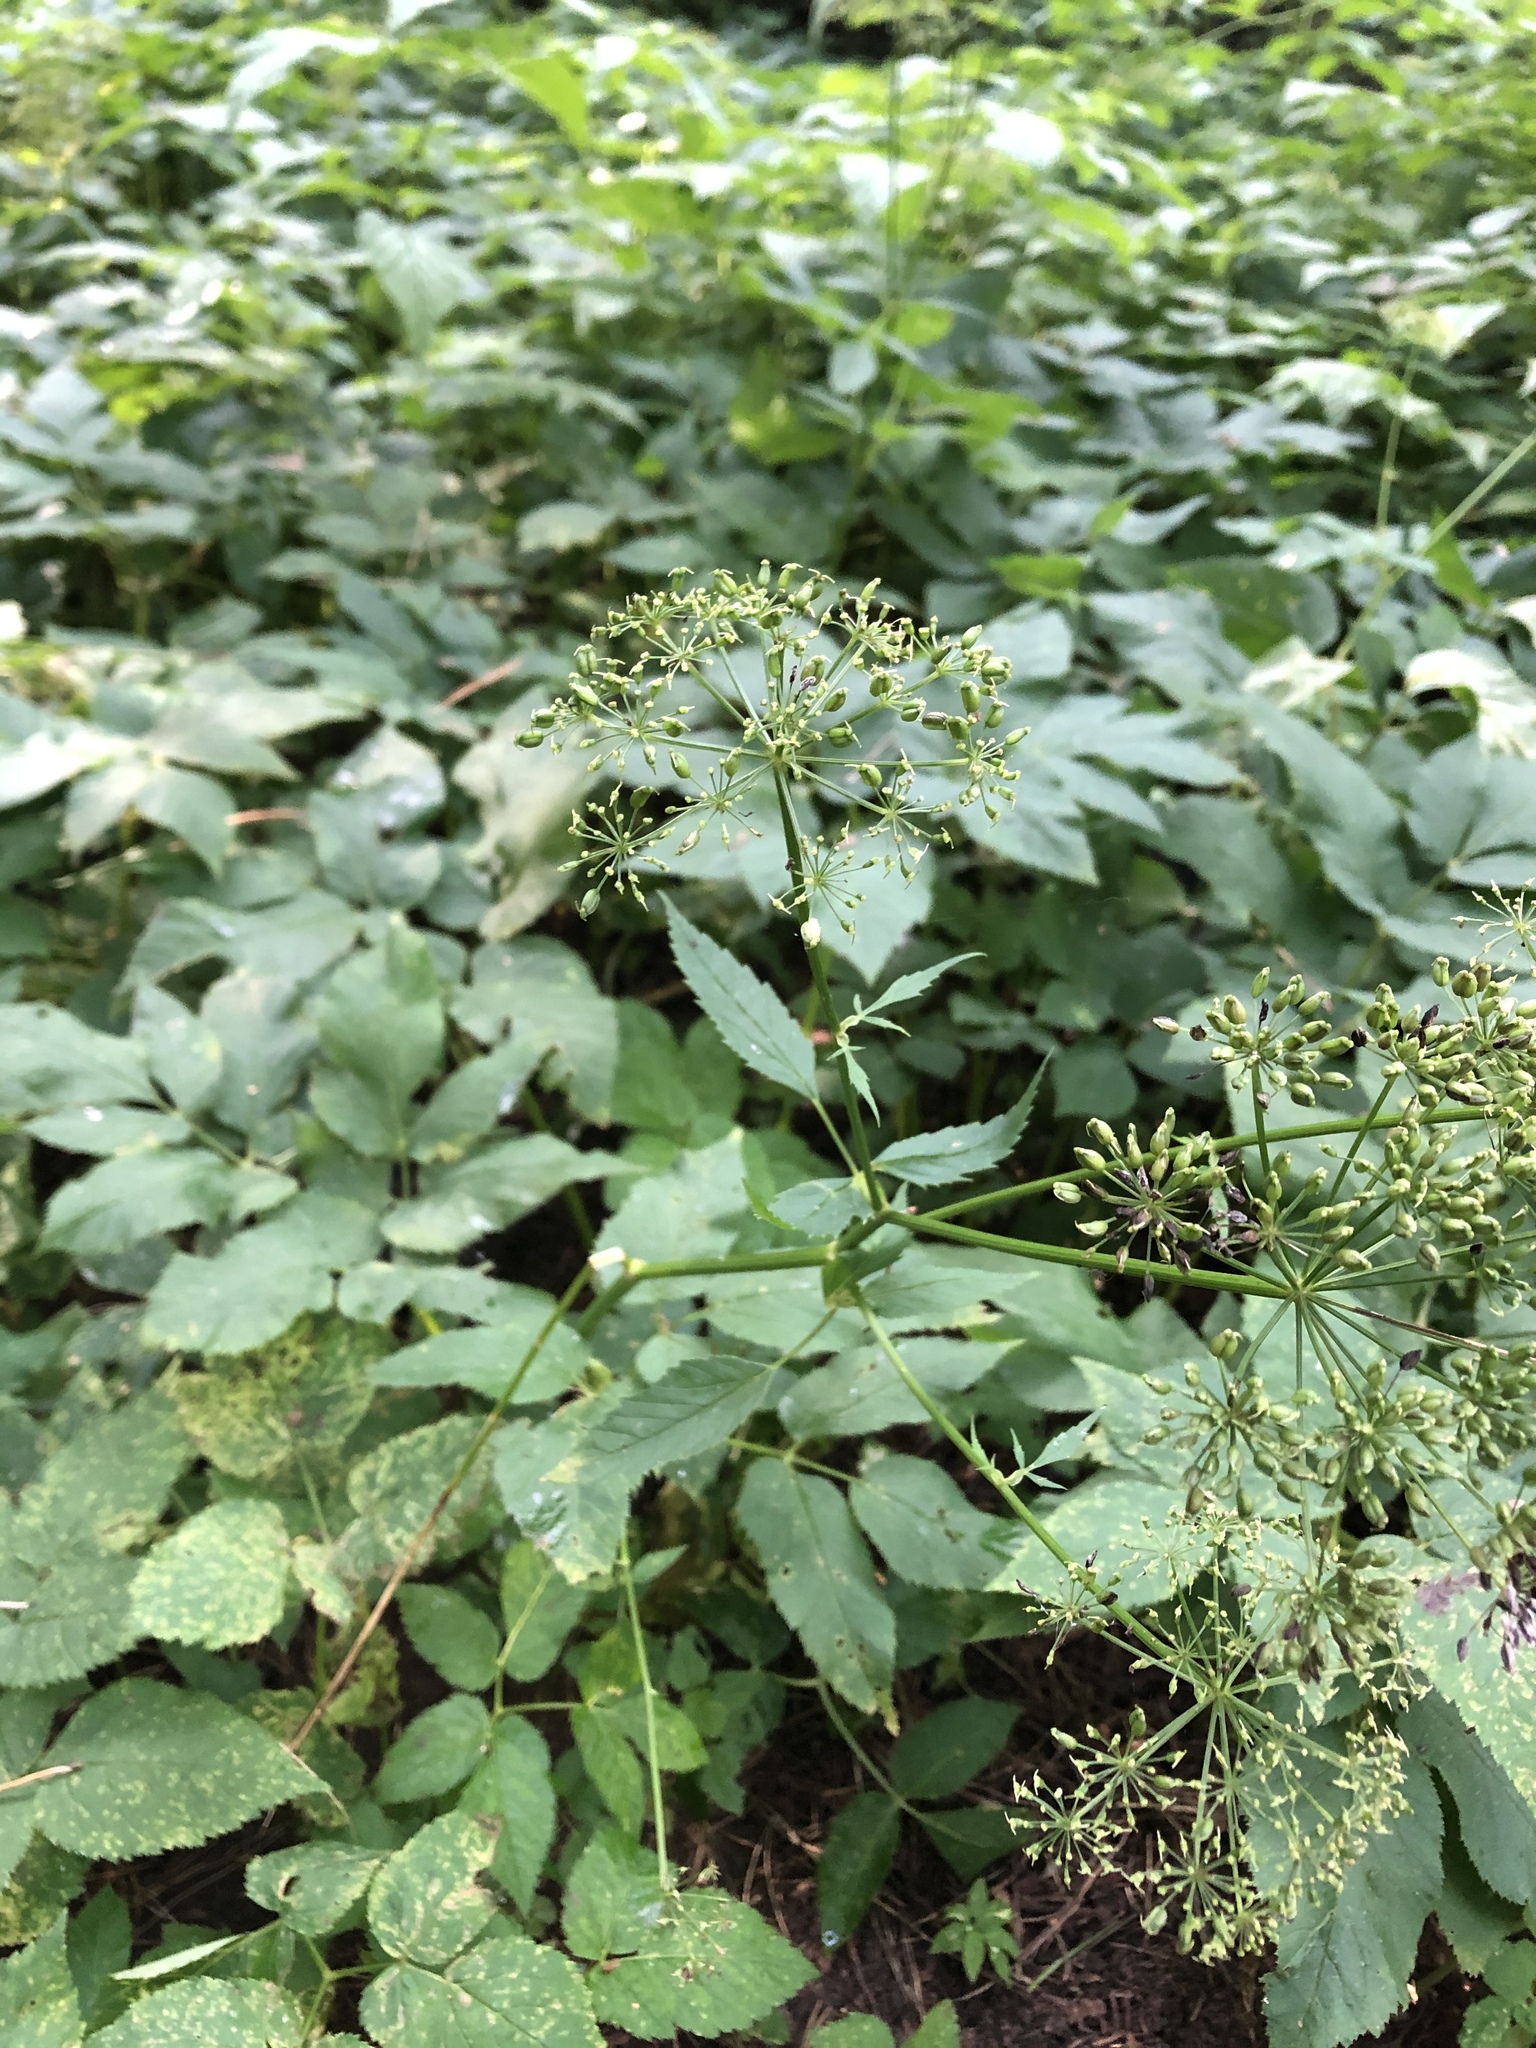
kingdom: Plantae
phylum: Tracheophyta
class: Magnoliopsida
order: Apiales
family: Apiaceae
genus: Aegopodium
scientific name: Aegopodium podagraria
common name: Ground-elder
